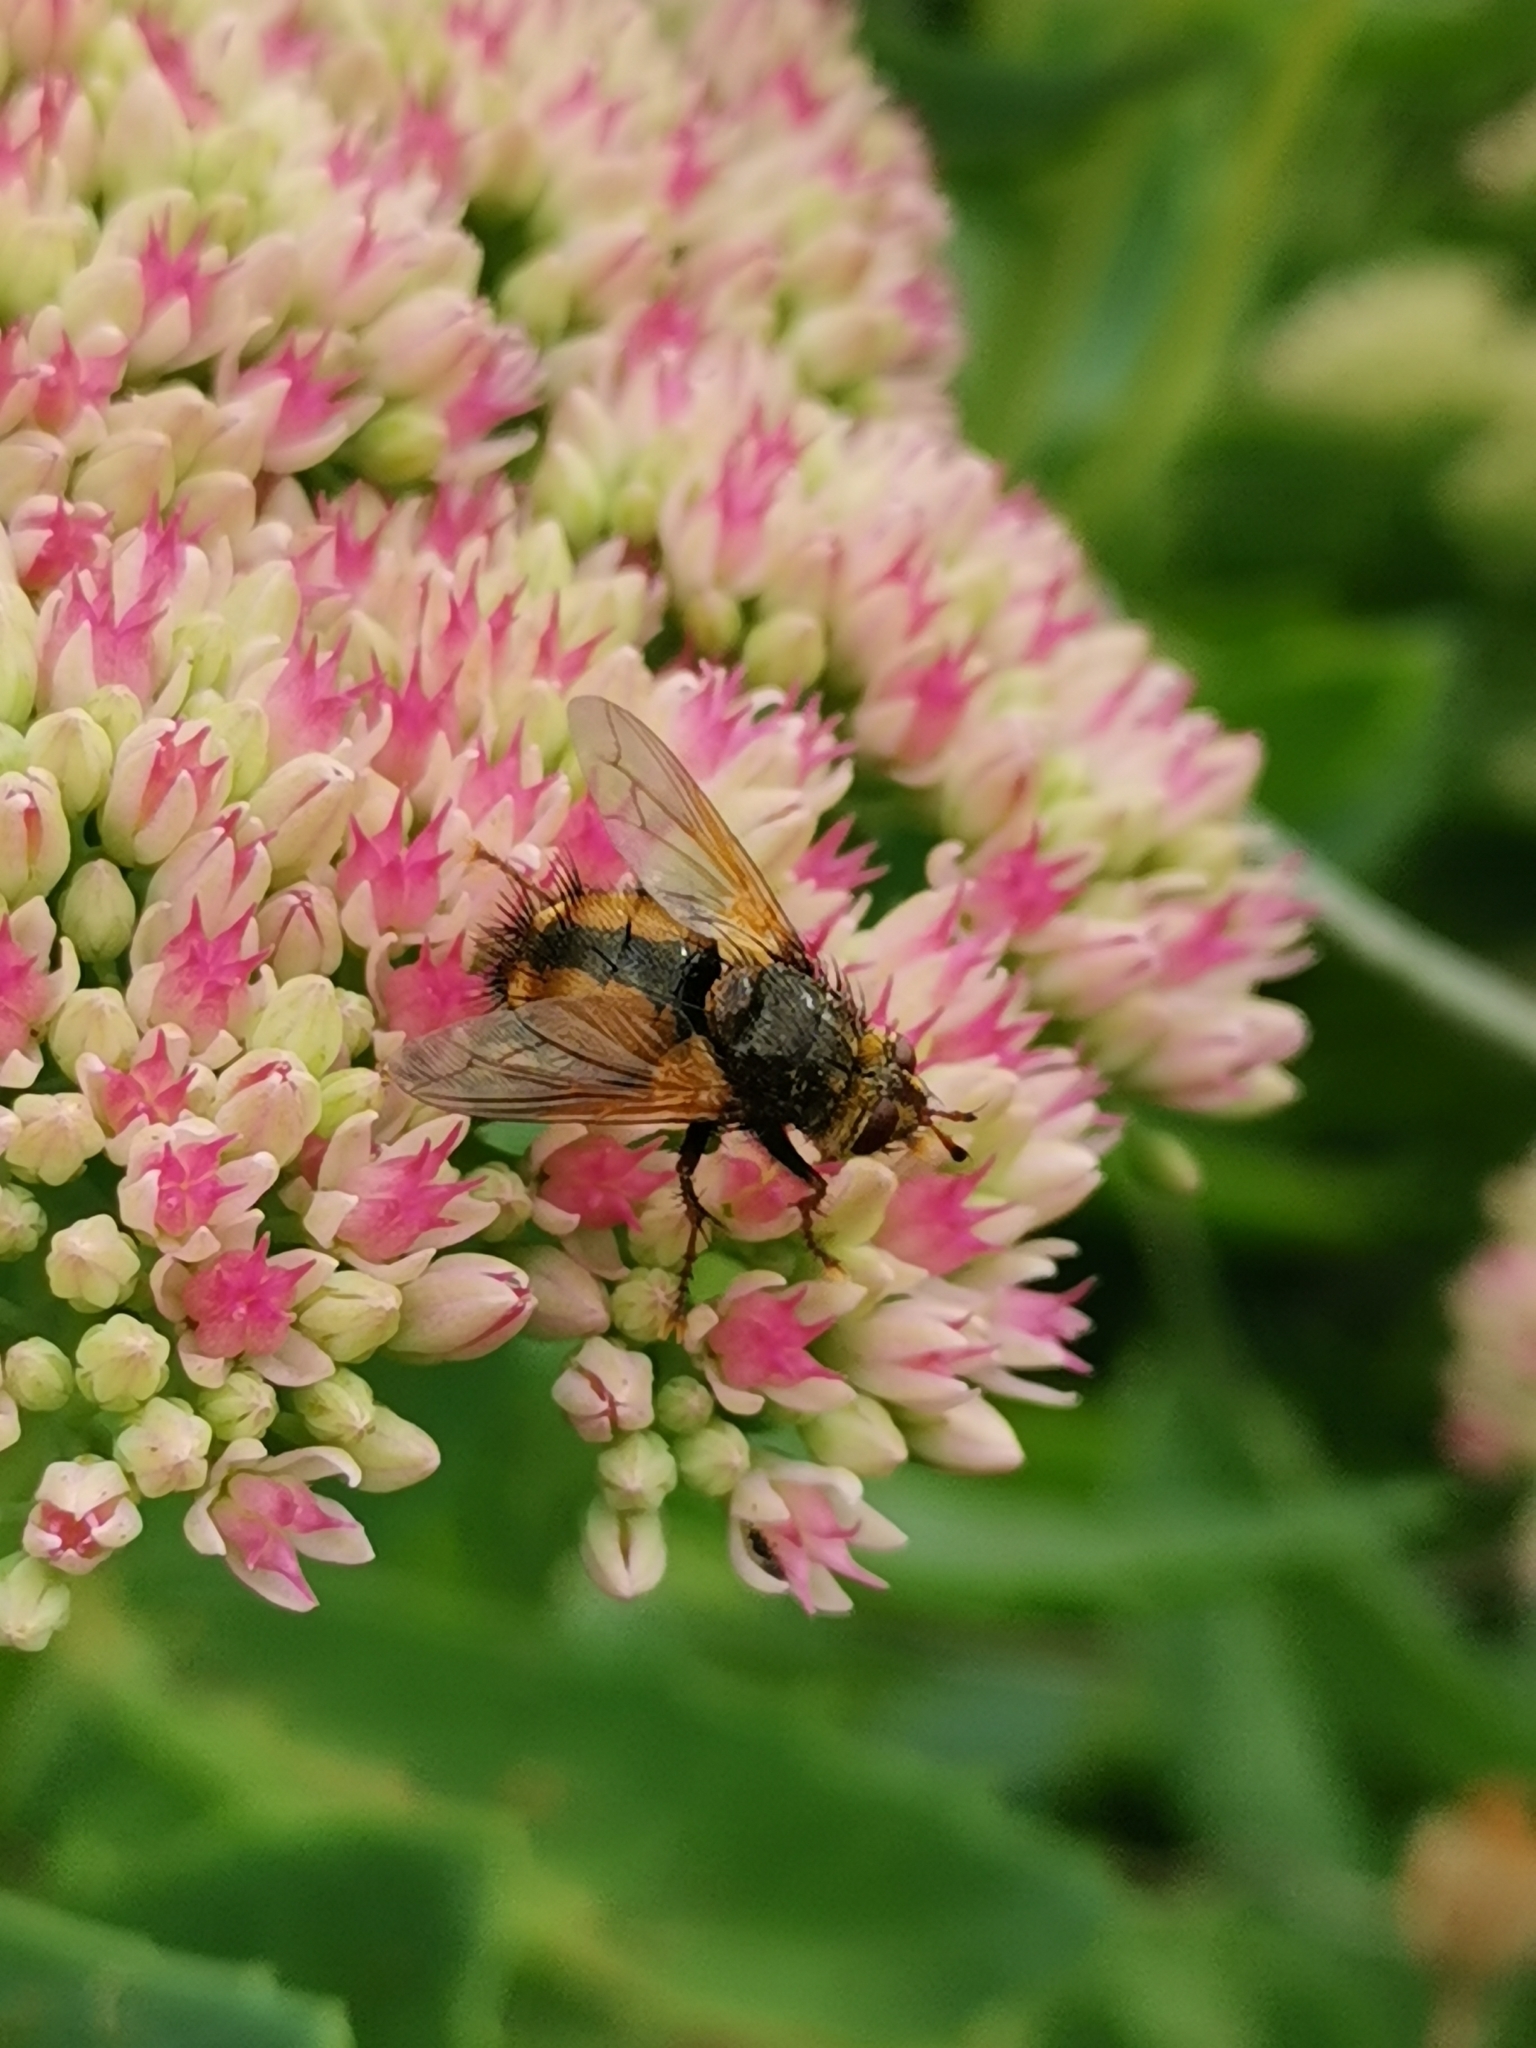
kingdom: Animalia
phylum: Arthropoda
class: Insecta
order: Diptera
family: Tachinidae
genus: Tachina
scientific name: Tachina fera
